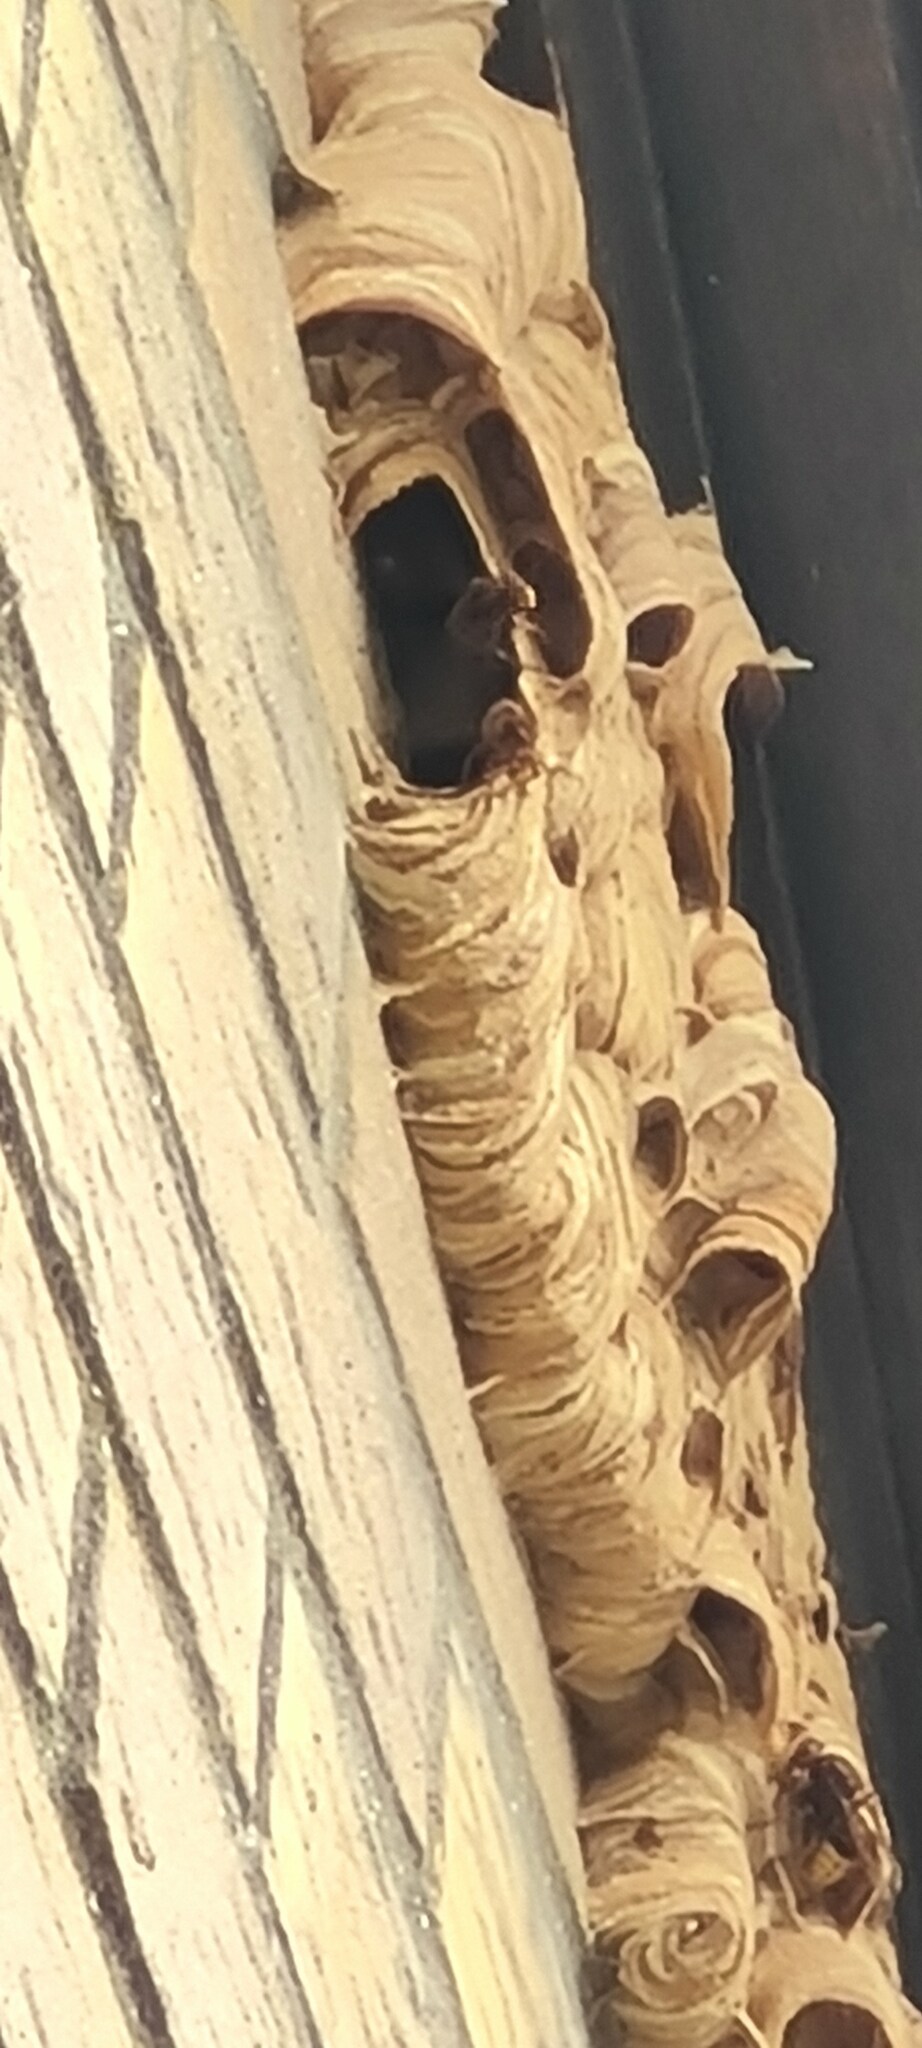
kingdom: Animalia
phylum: Arthropoda
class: Insecta
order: Hymenoptera
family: Vespidae
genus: Vespa
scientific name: Vespa crabro
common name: Hornet
